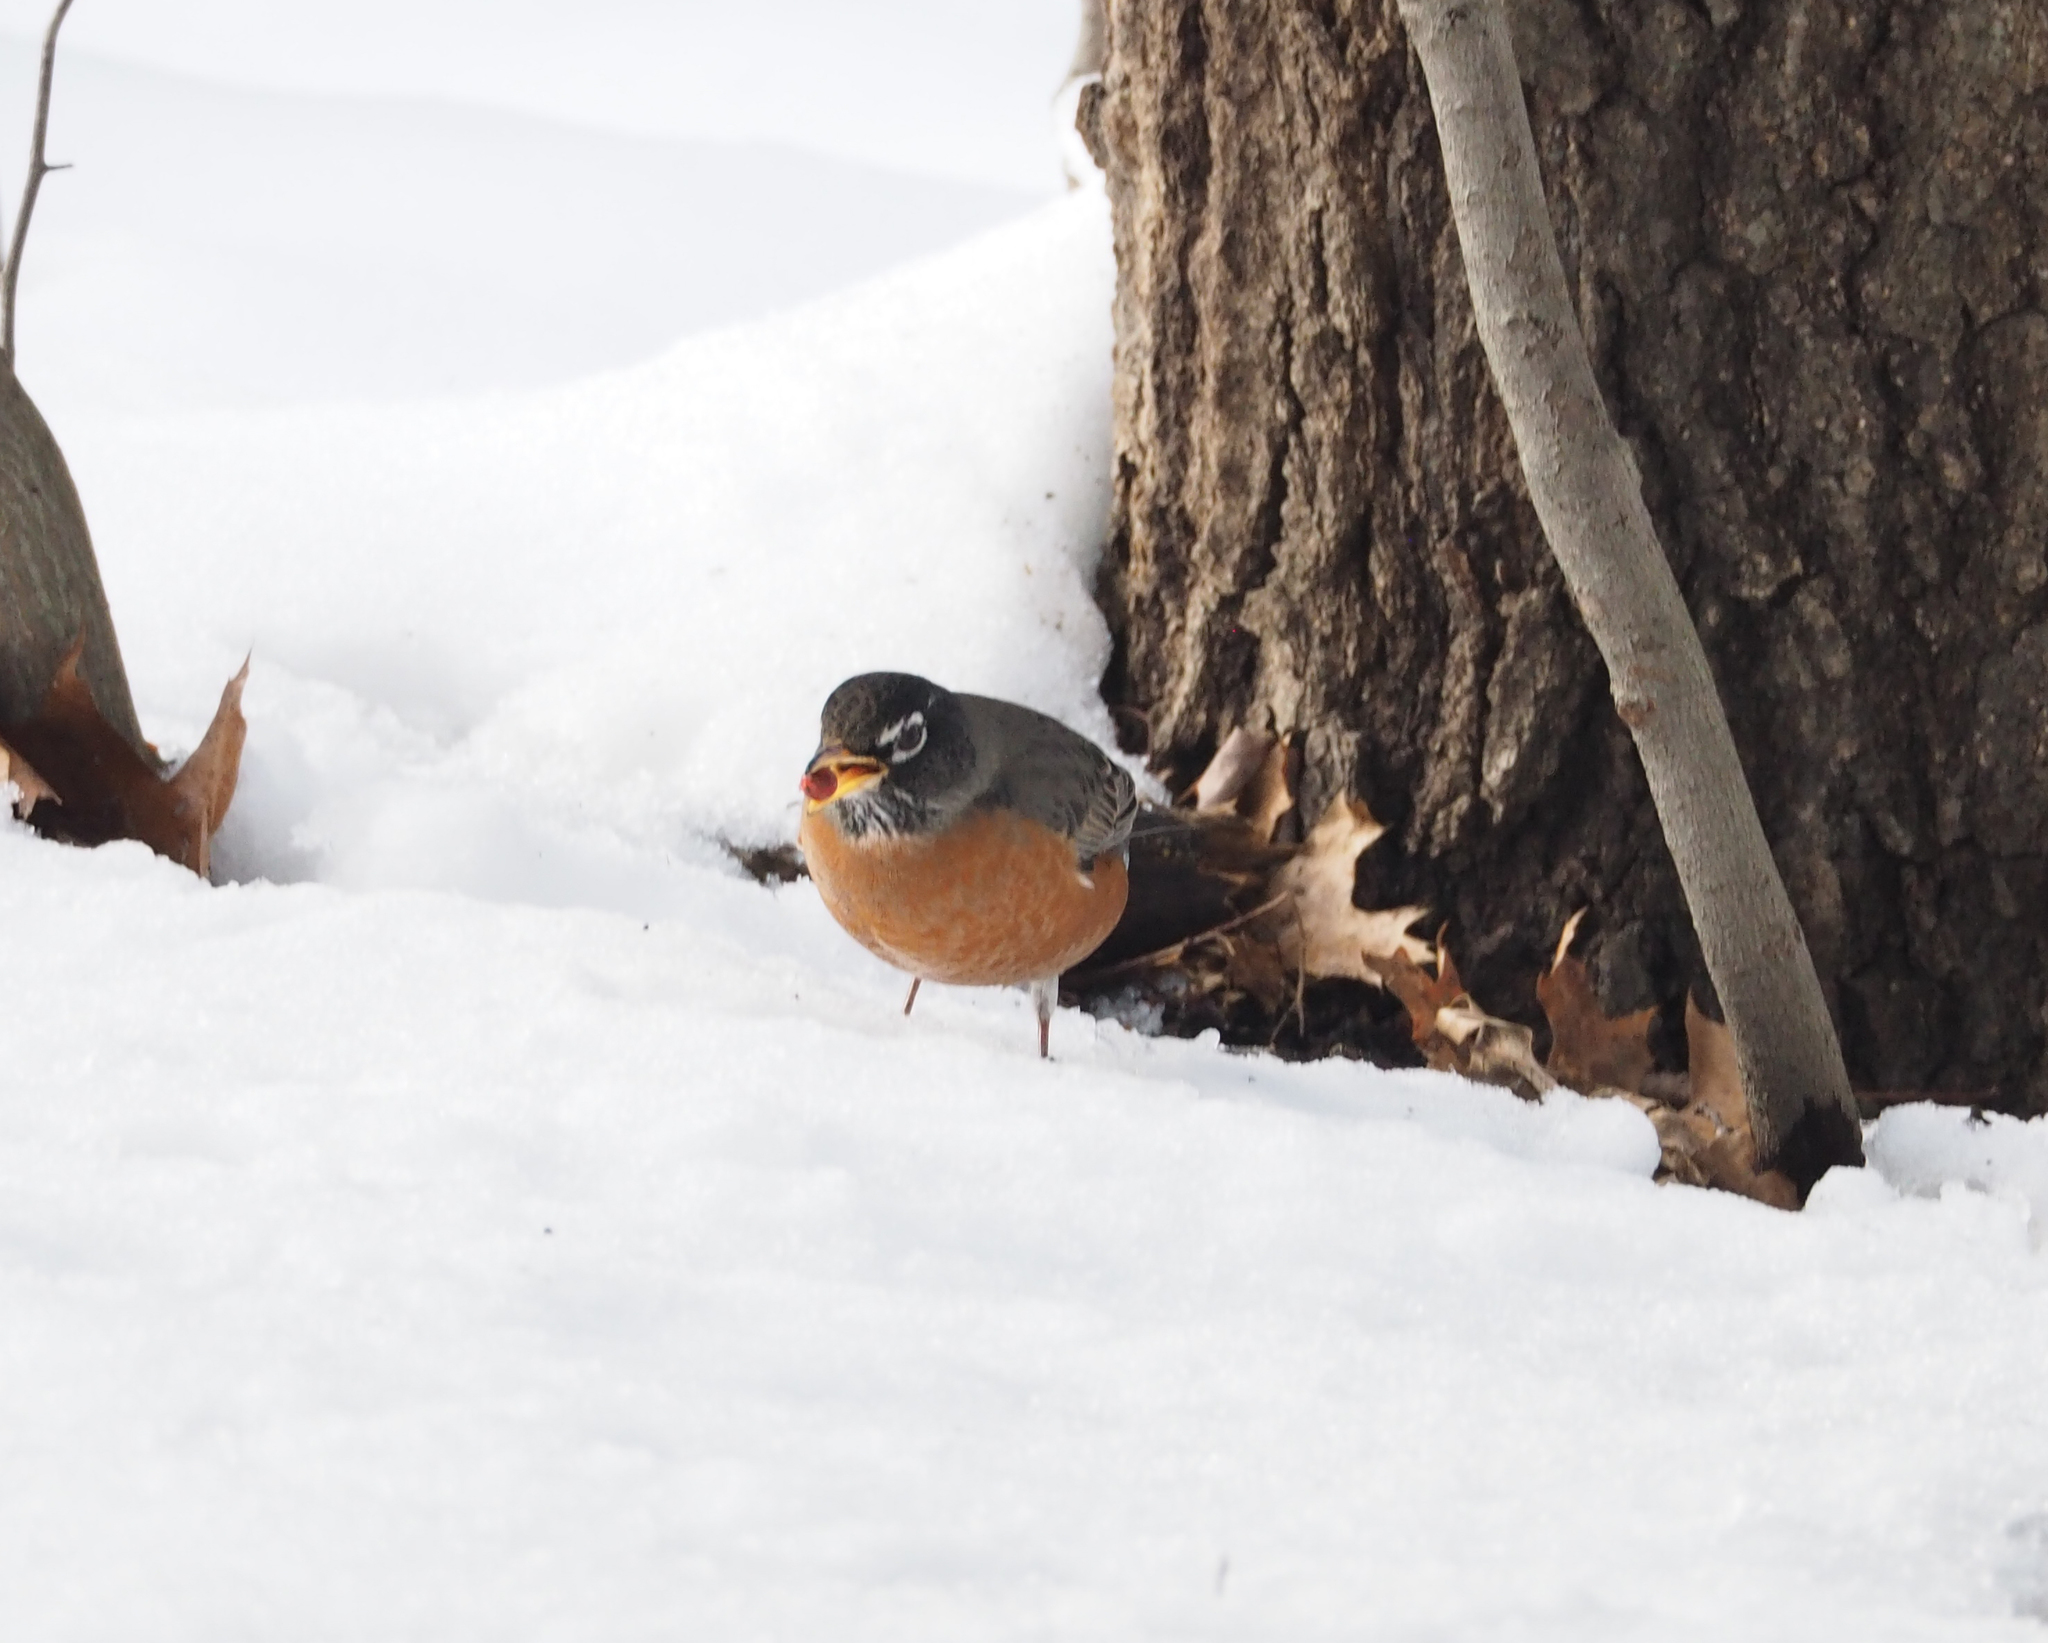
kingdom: Animalia
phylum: Chordata
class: Aves
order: Passeriformes
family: Turdidae
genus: Turdus
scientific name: Turdus migratorius
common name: American robin
